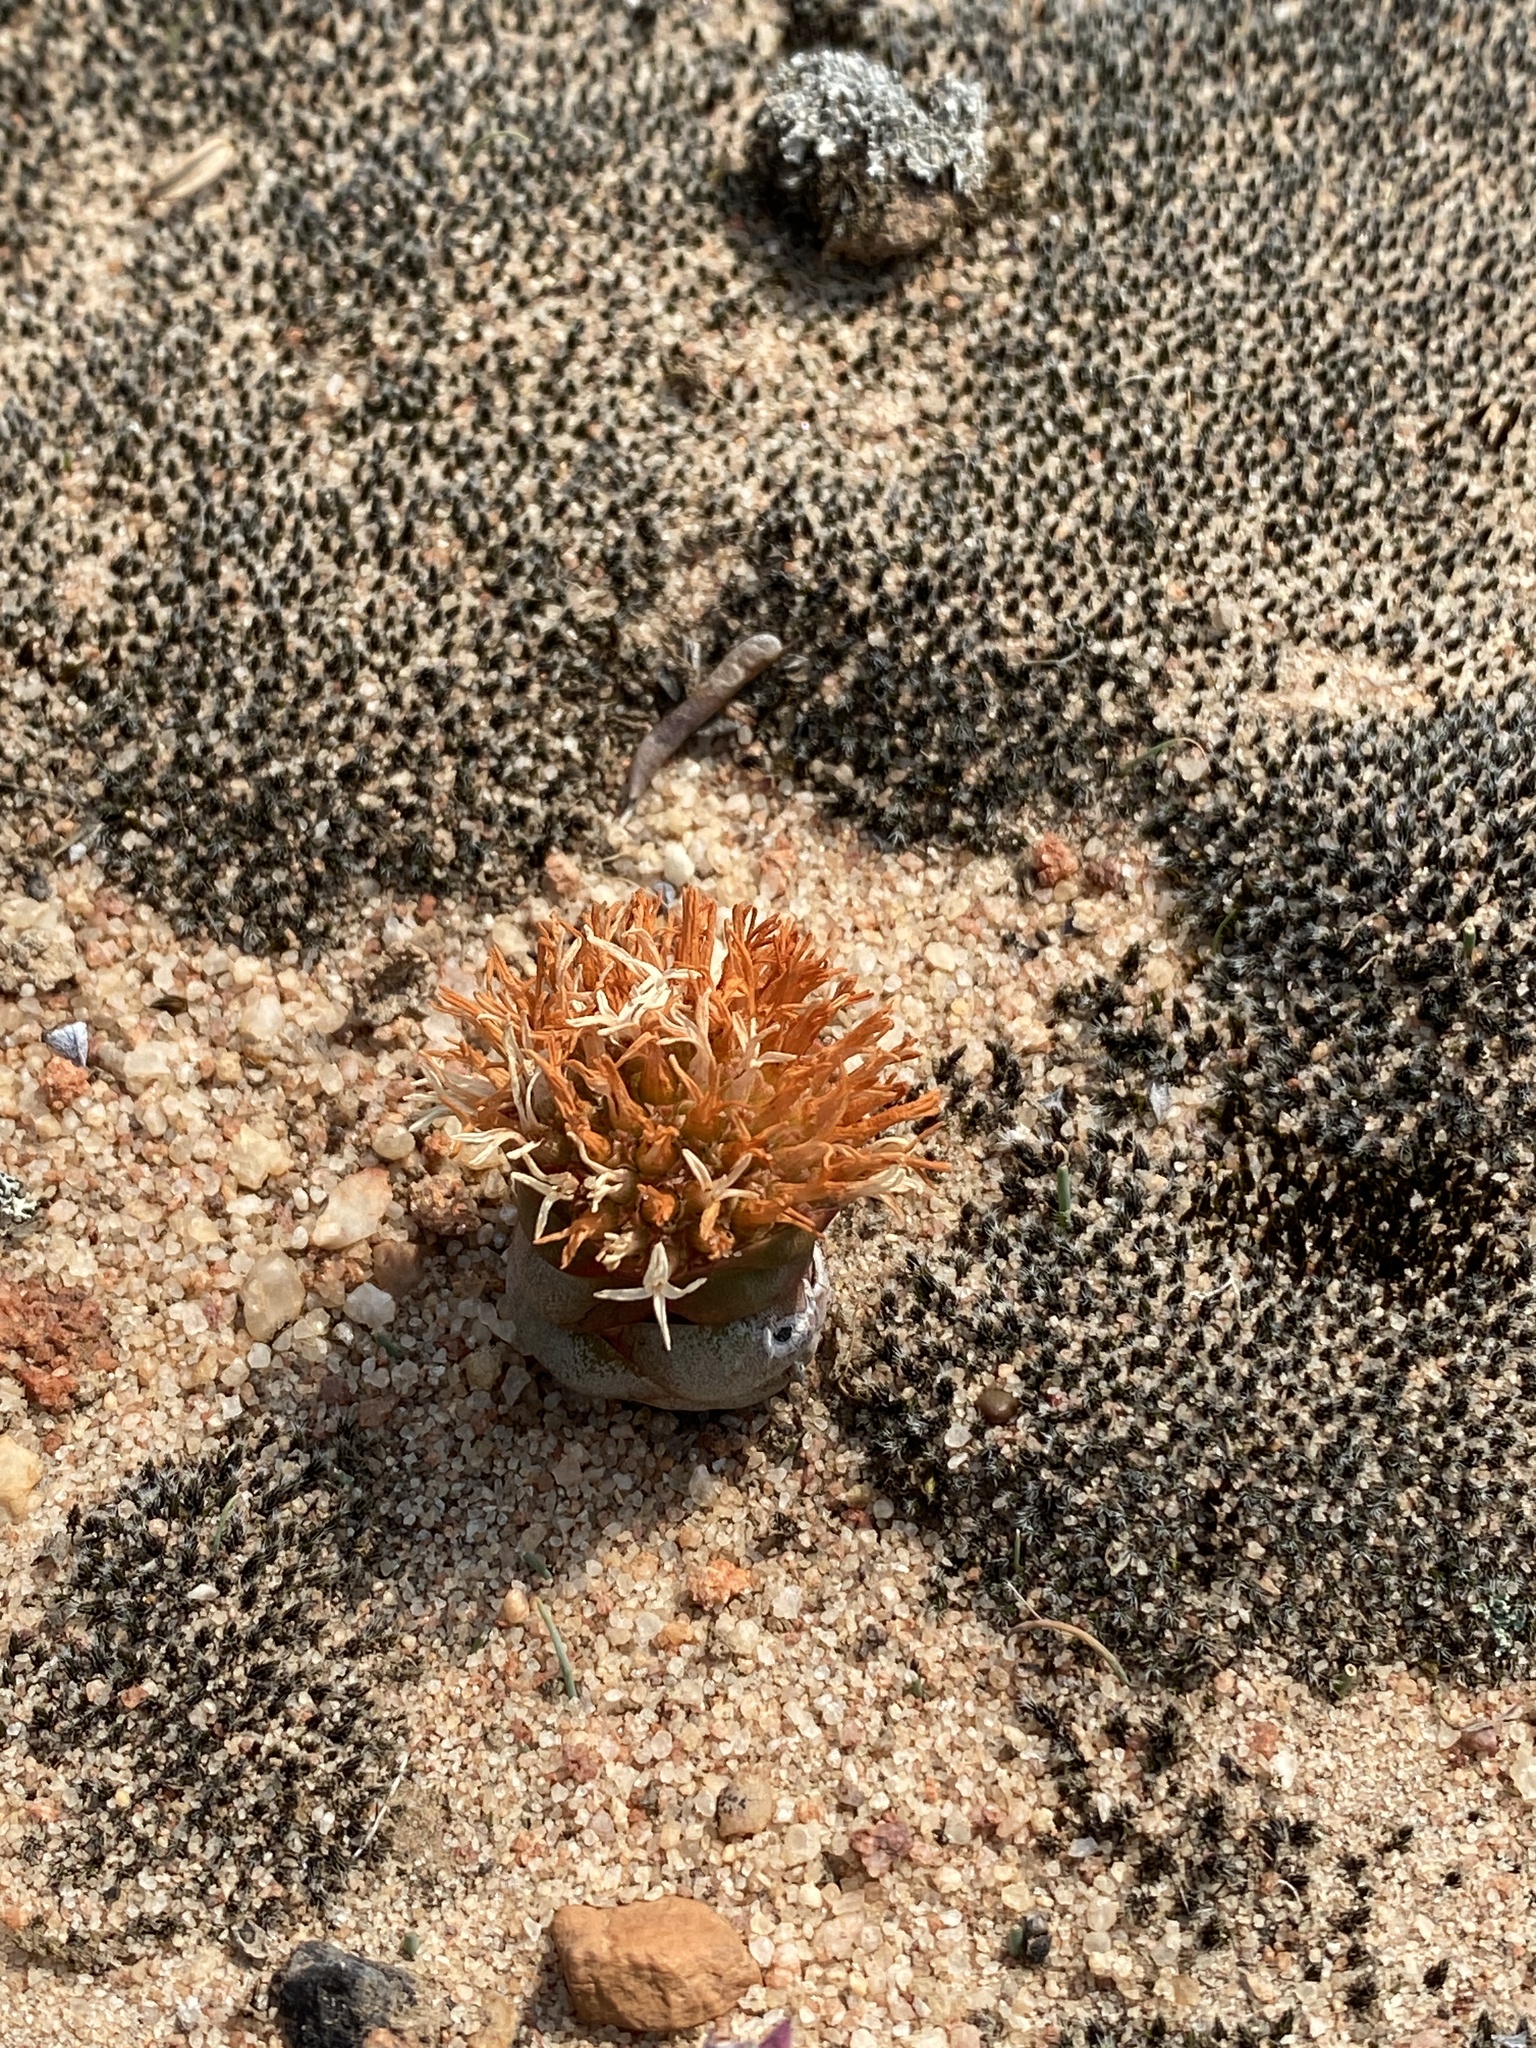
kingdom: Plantae
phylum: Tracheophyta
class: Magnoliopsida
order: Saxifragales
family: Crassulaceae
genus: Crassula
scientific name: Crassula columnaris
